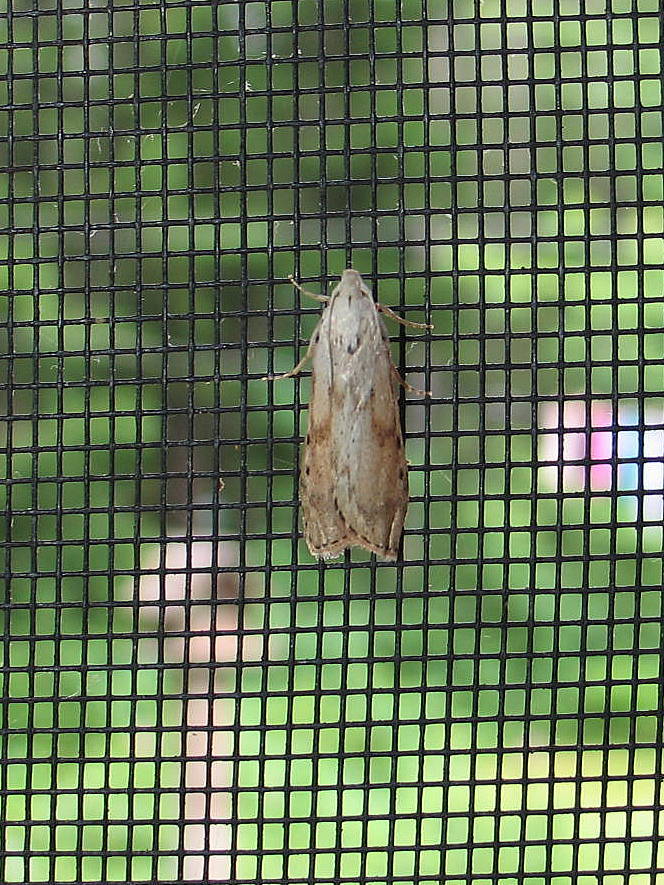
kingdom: Animalia
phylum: Arthropoda
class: Insecta
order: Lepidoptera
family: Pyralidae
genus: Aphomia
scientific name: Aphomia sociella
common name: Bee moth
